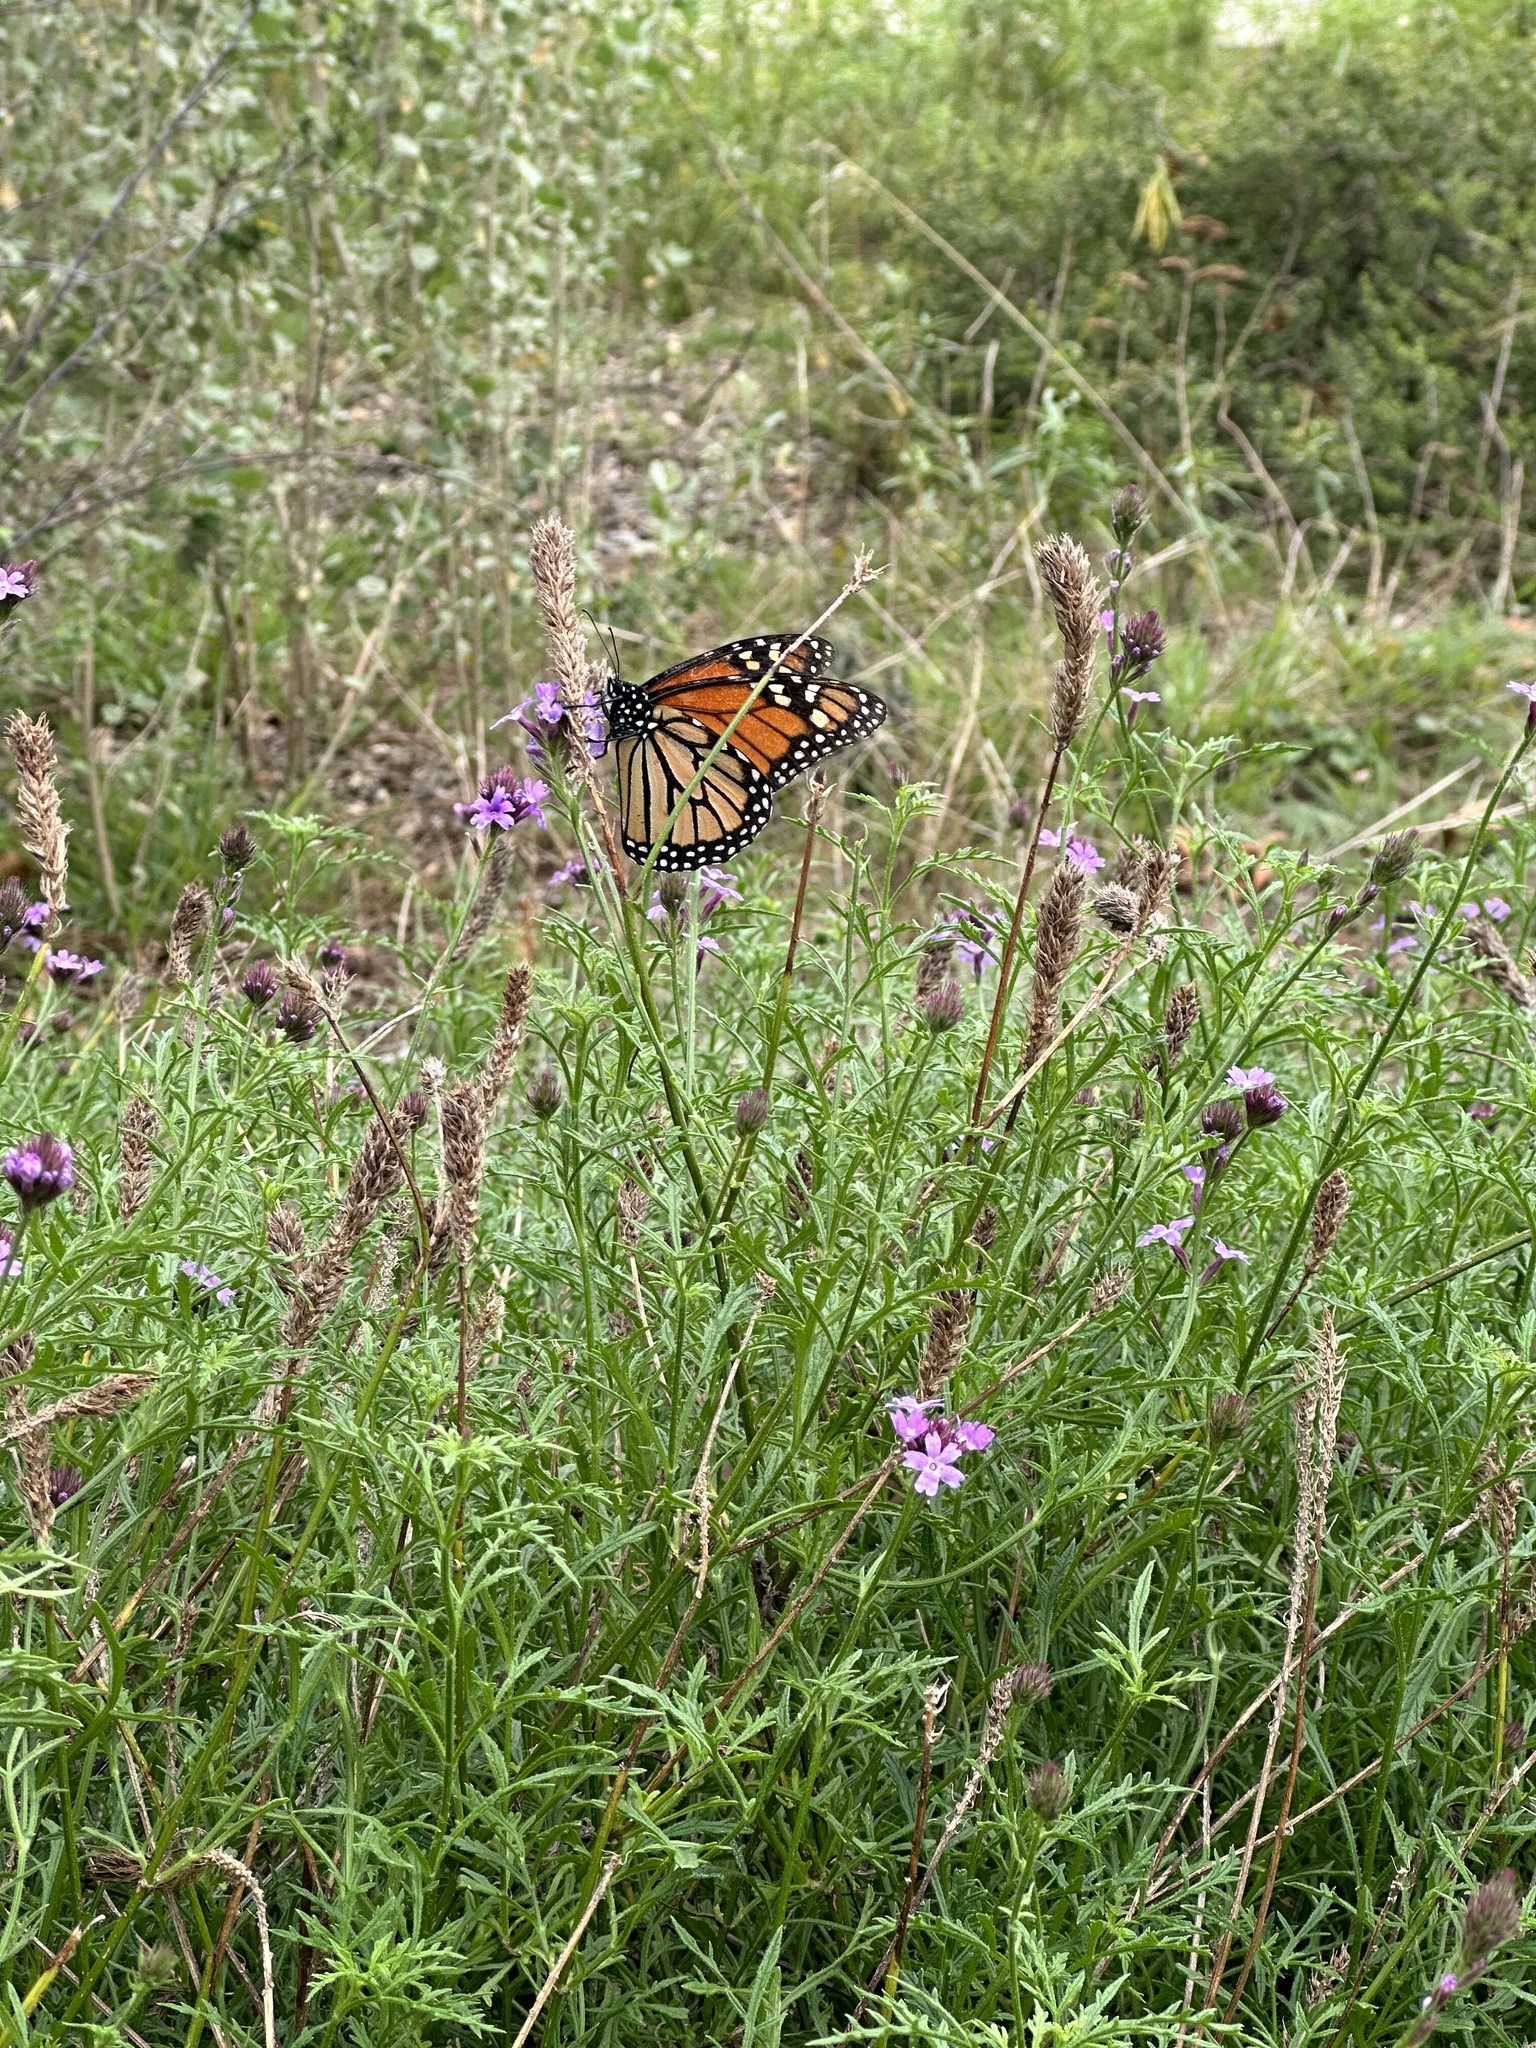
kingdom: Animalia
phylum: Arthropoda
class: Insecta
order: Lepidoptera
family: Nymphalidae
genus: Danaus
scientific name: Danaus plexippus
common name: Monarch
